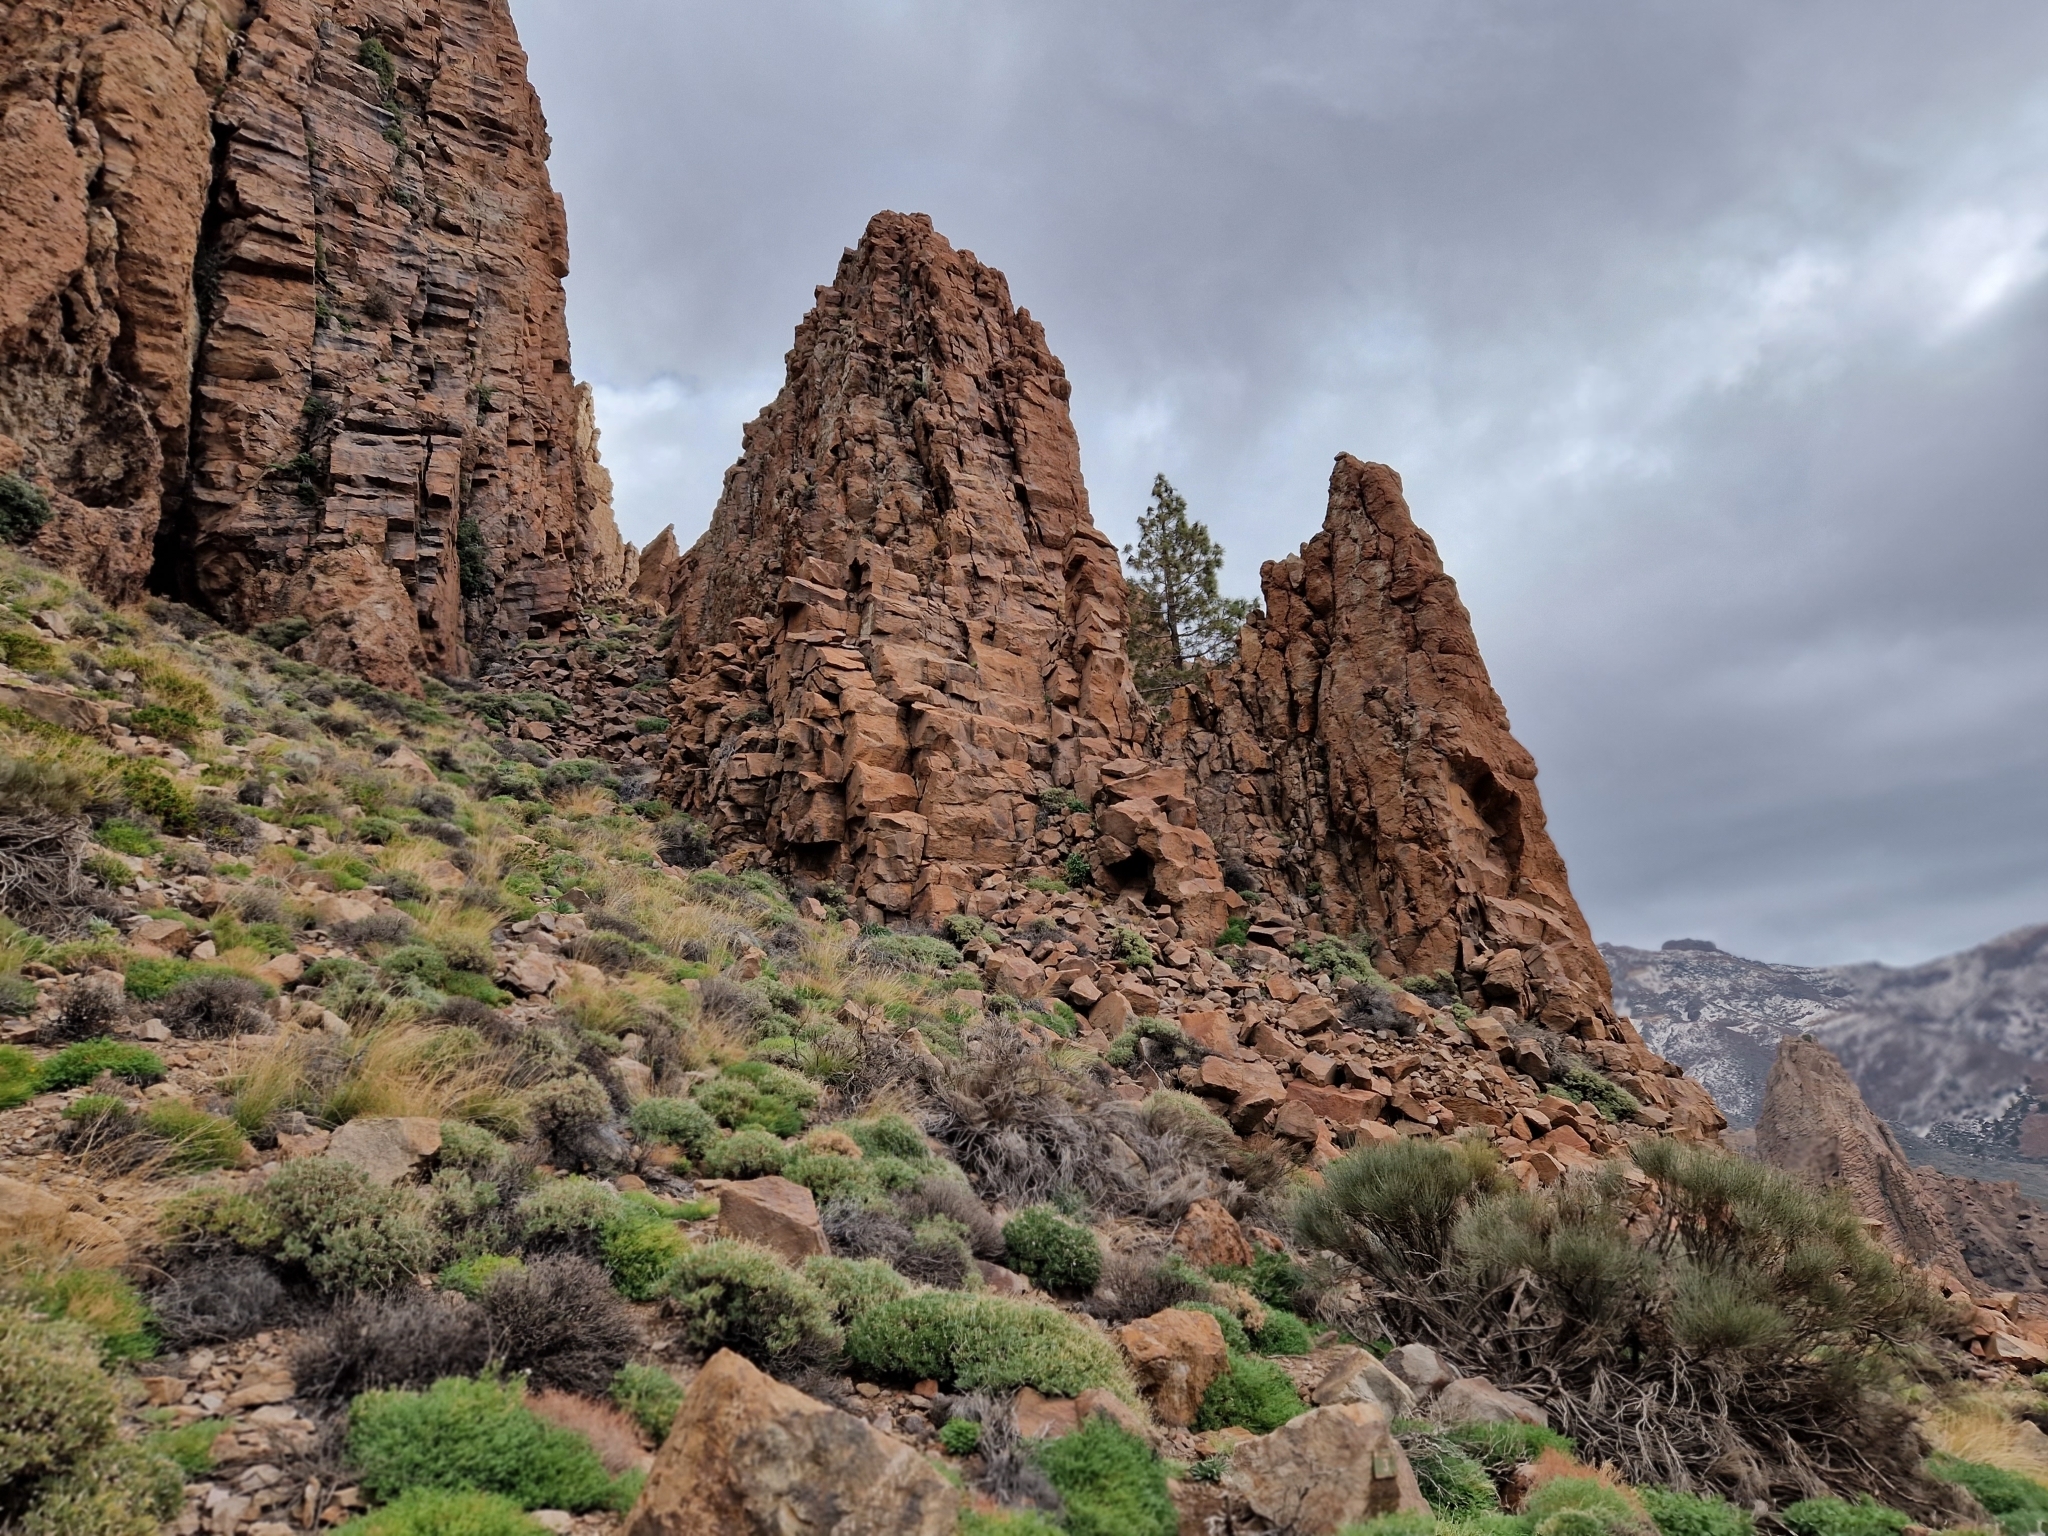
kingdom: Plantae
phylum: Tracheophyta
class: Pinopsida
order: Pinales
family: Pinaceae
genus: Pinus
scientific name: Pinus canariensis
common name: Canary islands pine
